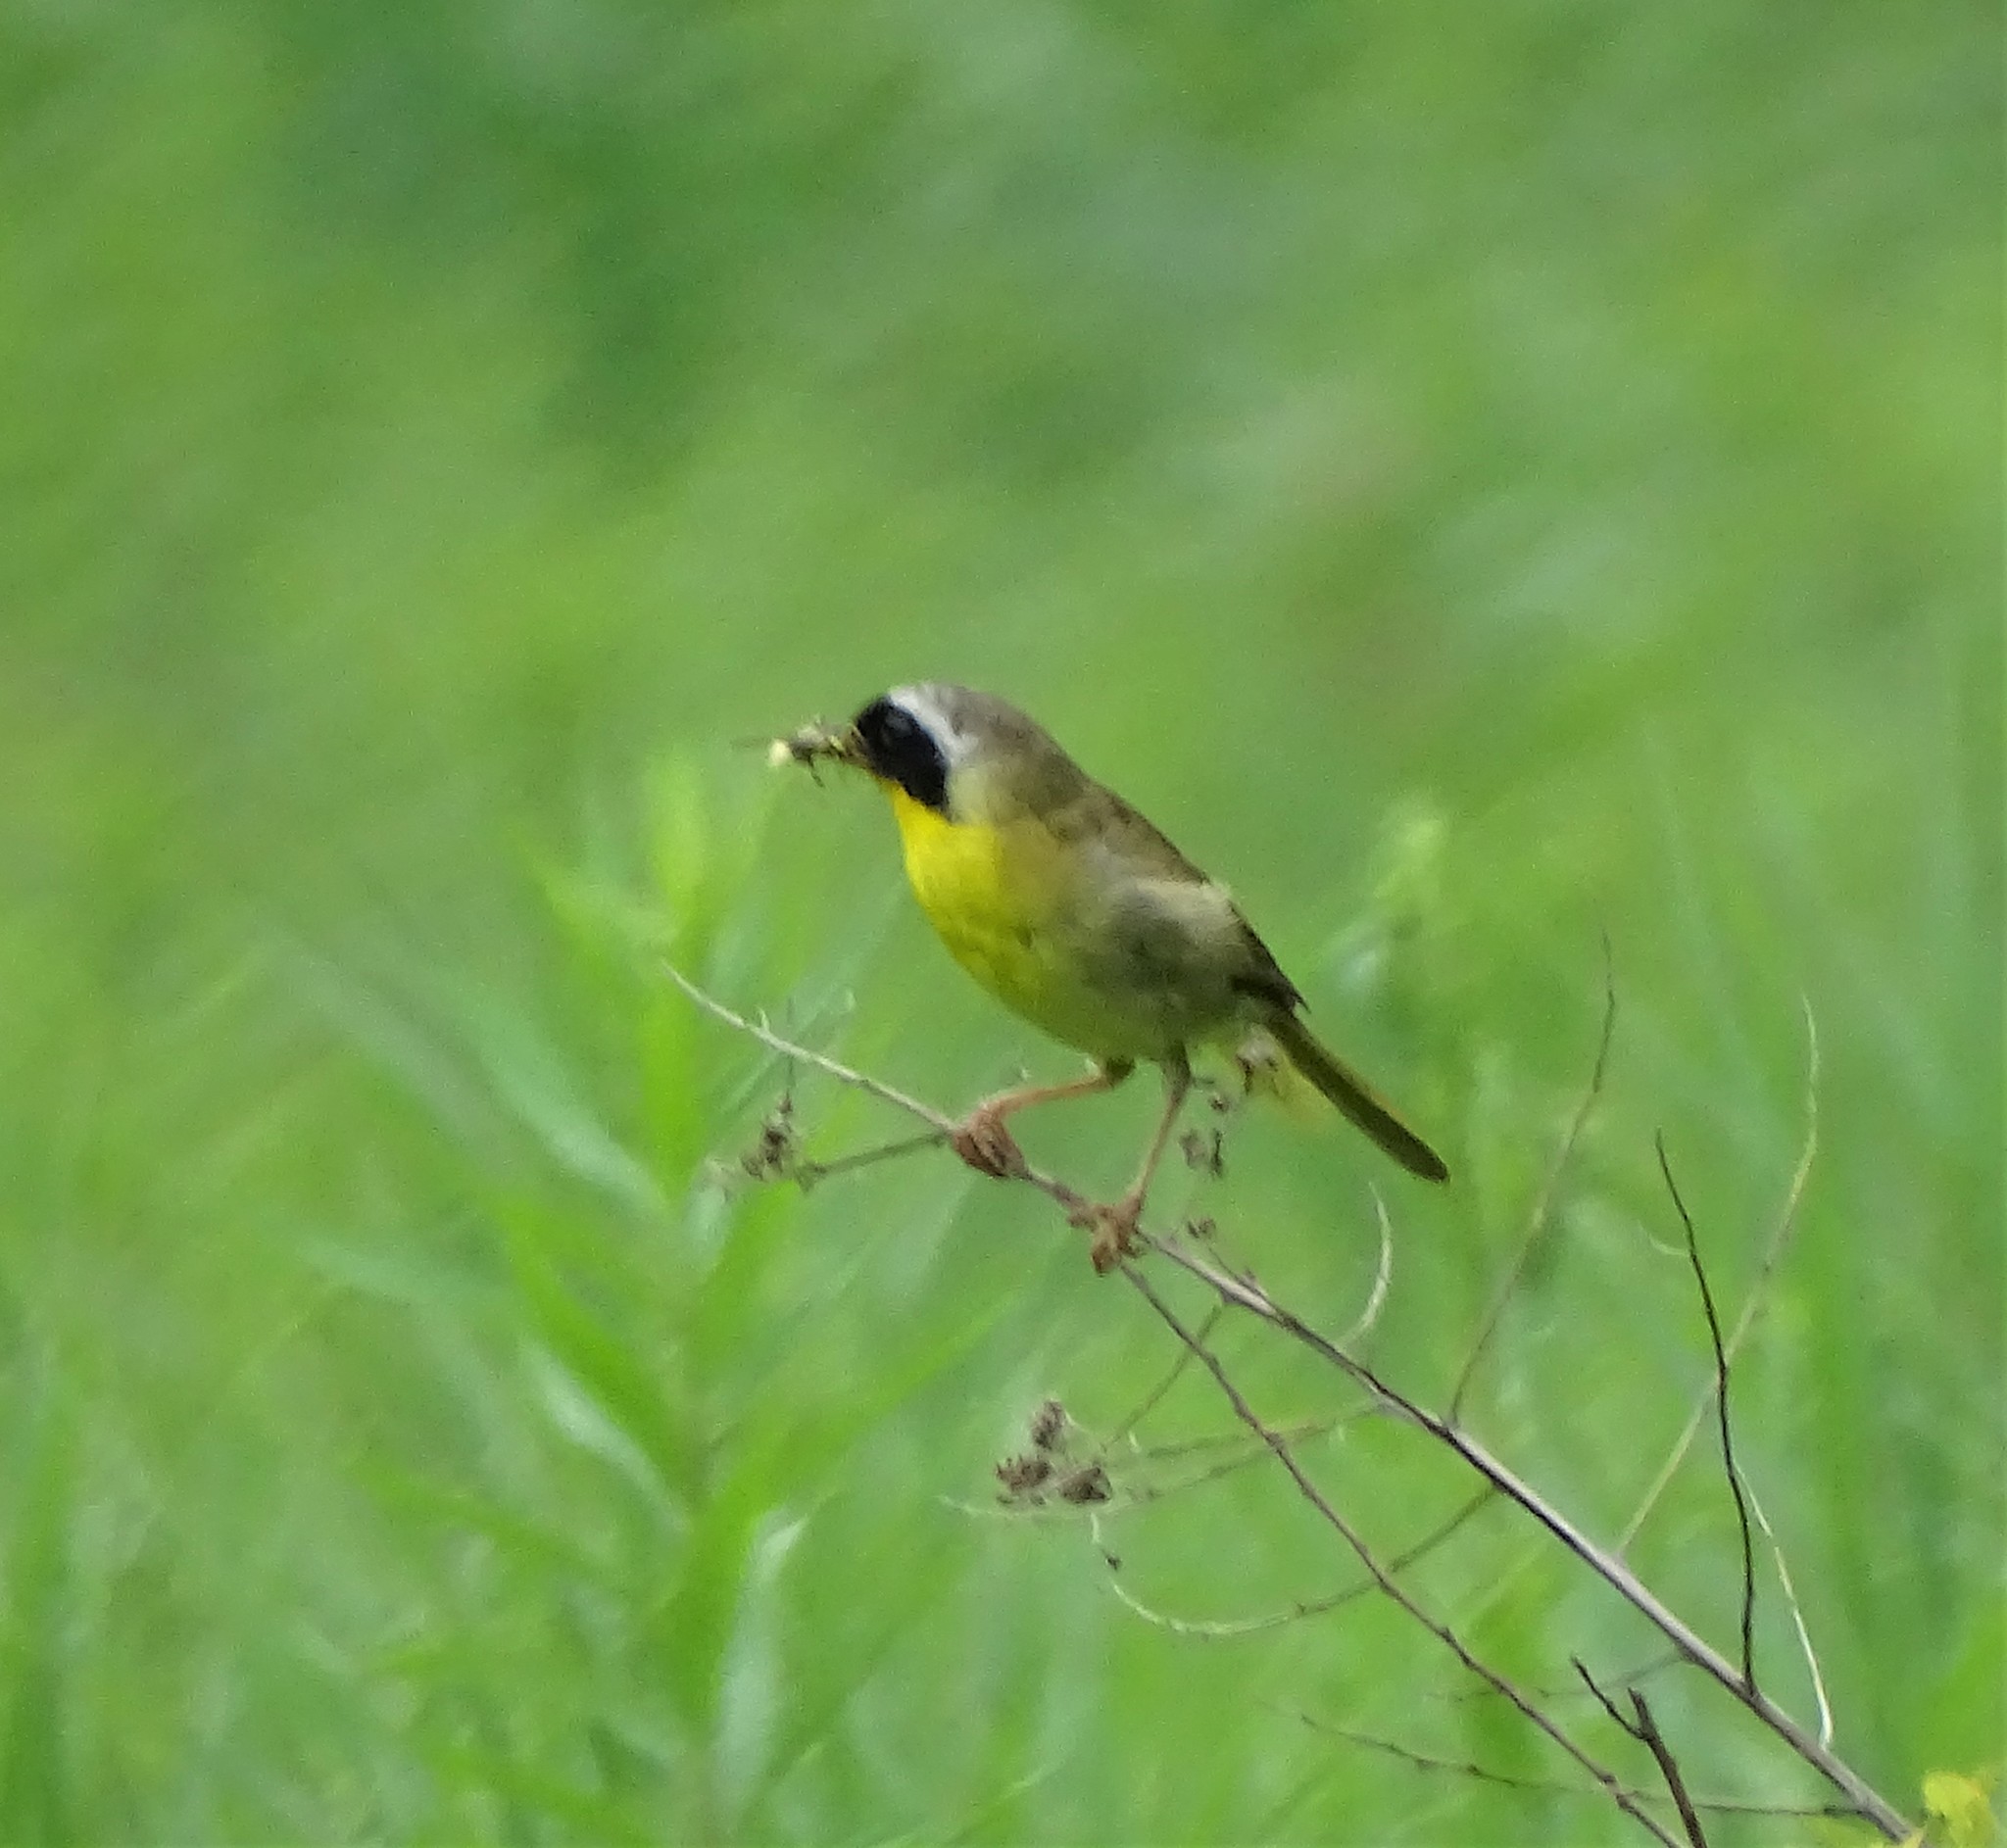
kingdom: Animalia
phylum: Chordata
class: Aves
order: Passeriformes
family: Parulidae
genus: Geothlypis
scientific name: Geothlypis trichas
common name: Common yellowthroat
